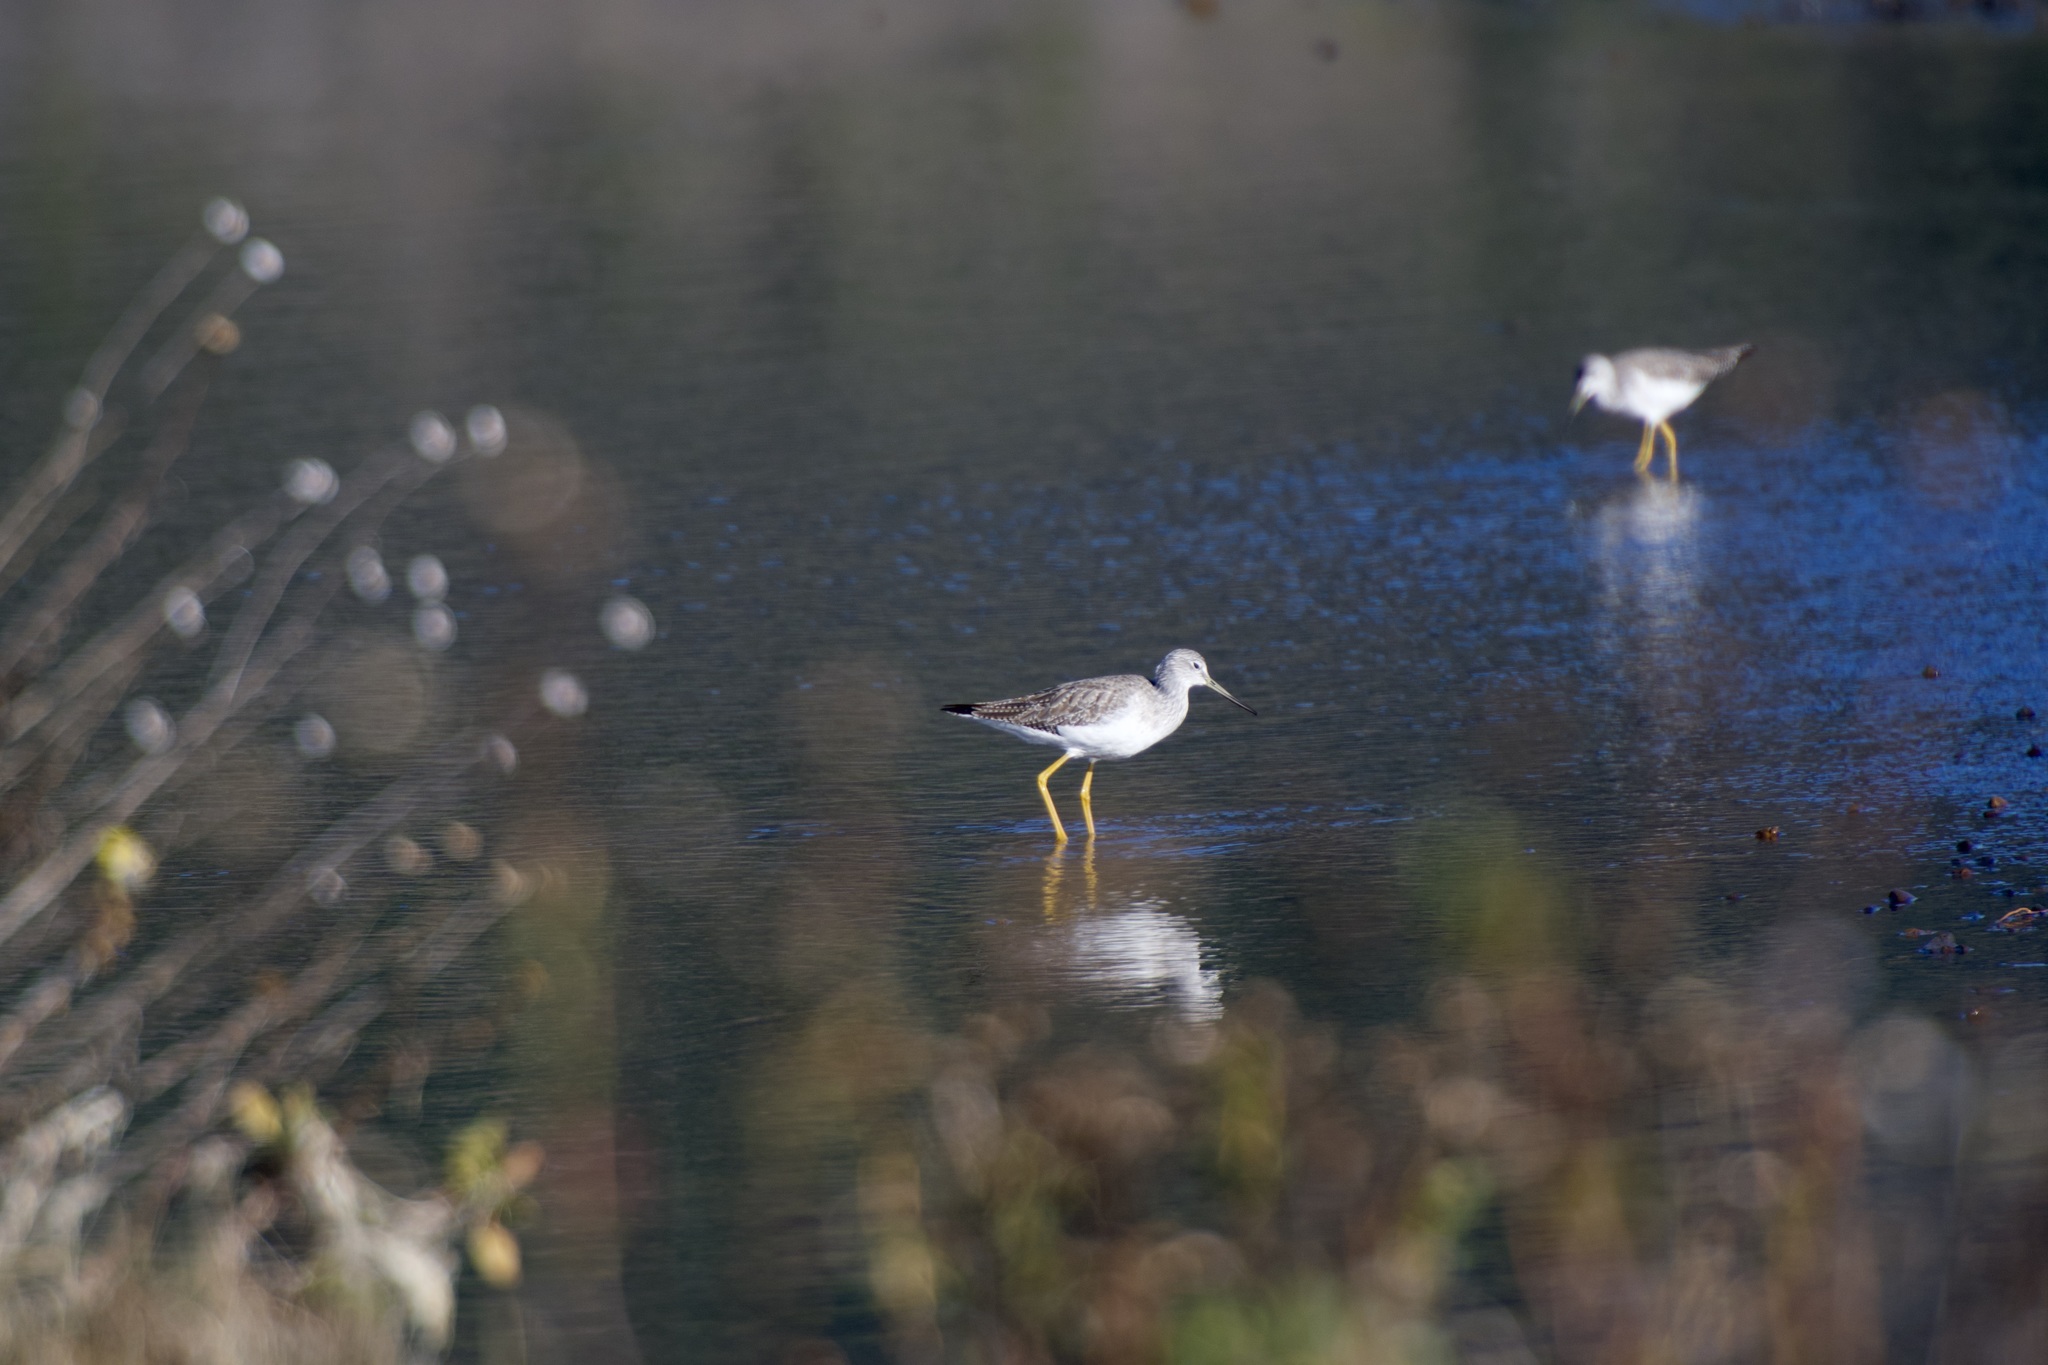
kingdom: Animalia
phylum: Chordata
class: Aves
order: Charadriiformes
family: Scolopacidae
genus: Tringa
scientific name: Tringa melanoleuca
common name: Greater yellowlegs
